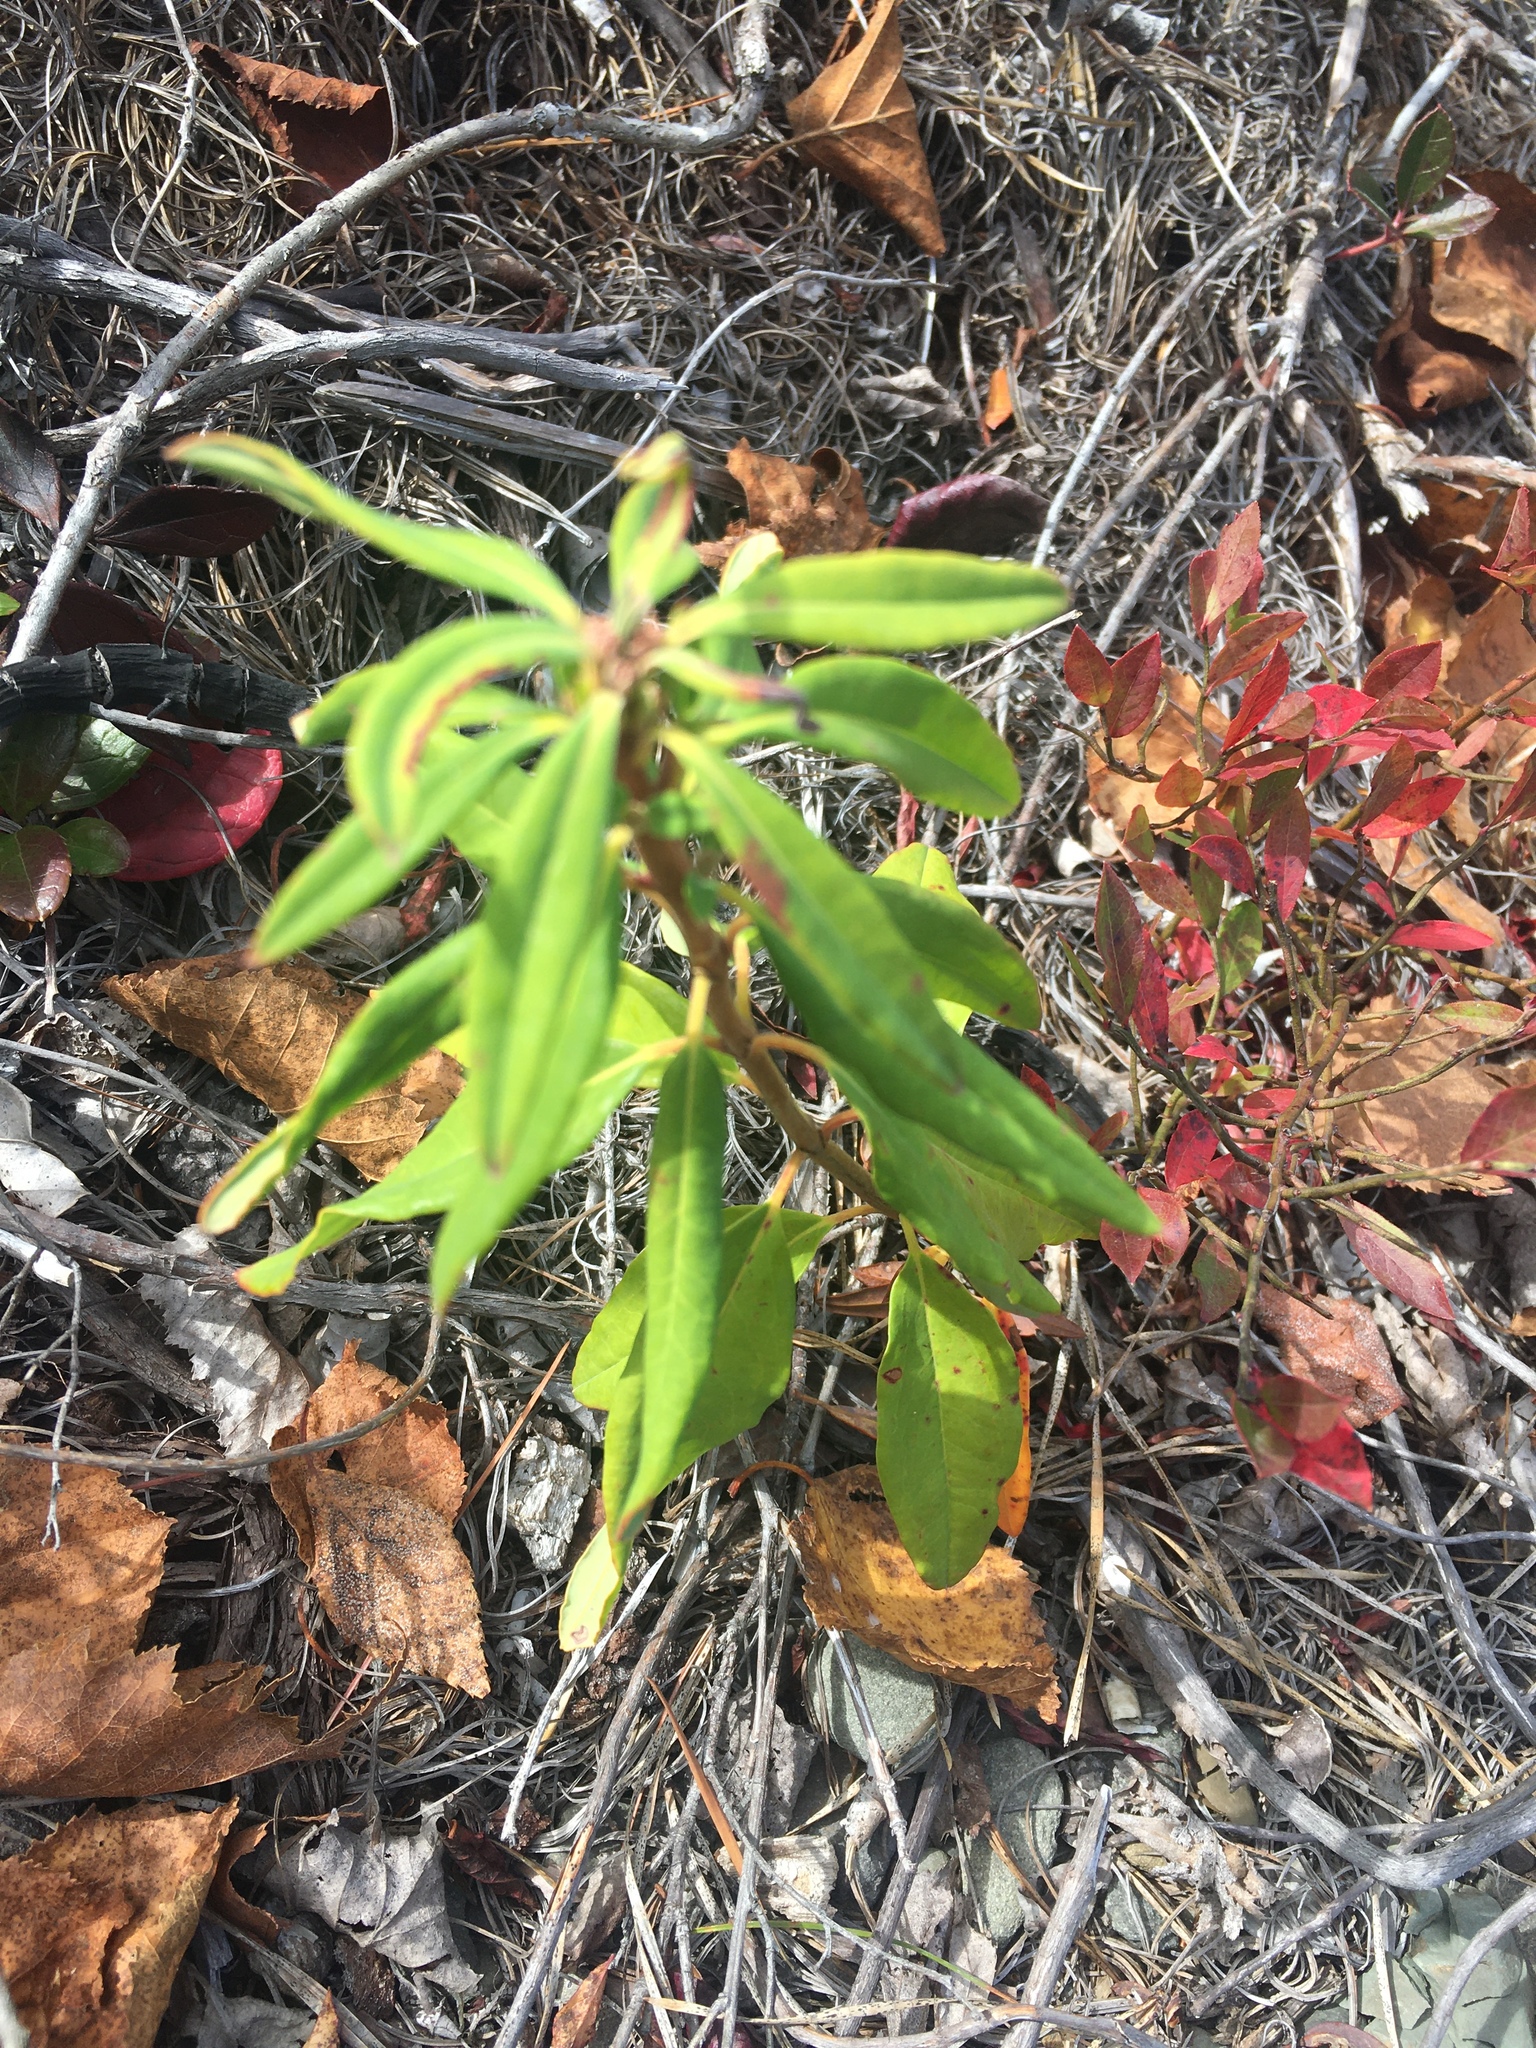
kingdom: Plantae
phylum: Tracheophyta
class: Magnoliopsida
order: Ericales
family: Ericaceae
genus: Kalmia
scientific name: Kalmia angustifolia
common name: Sheep-laurel
